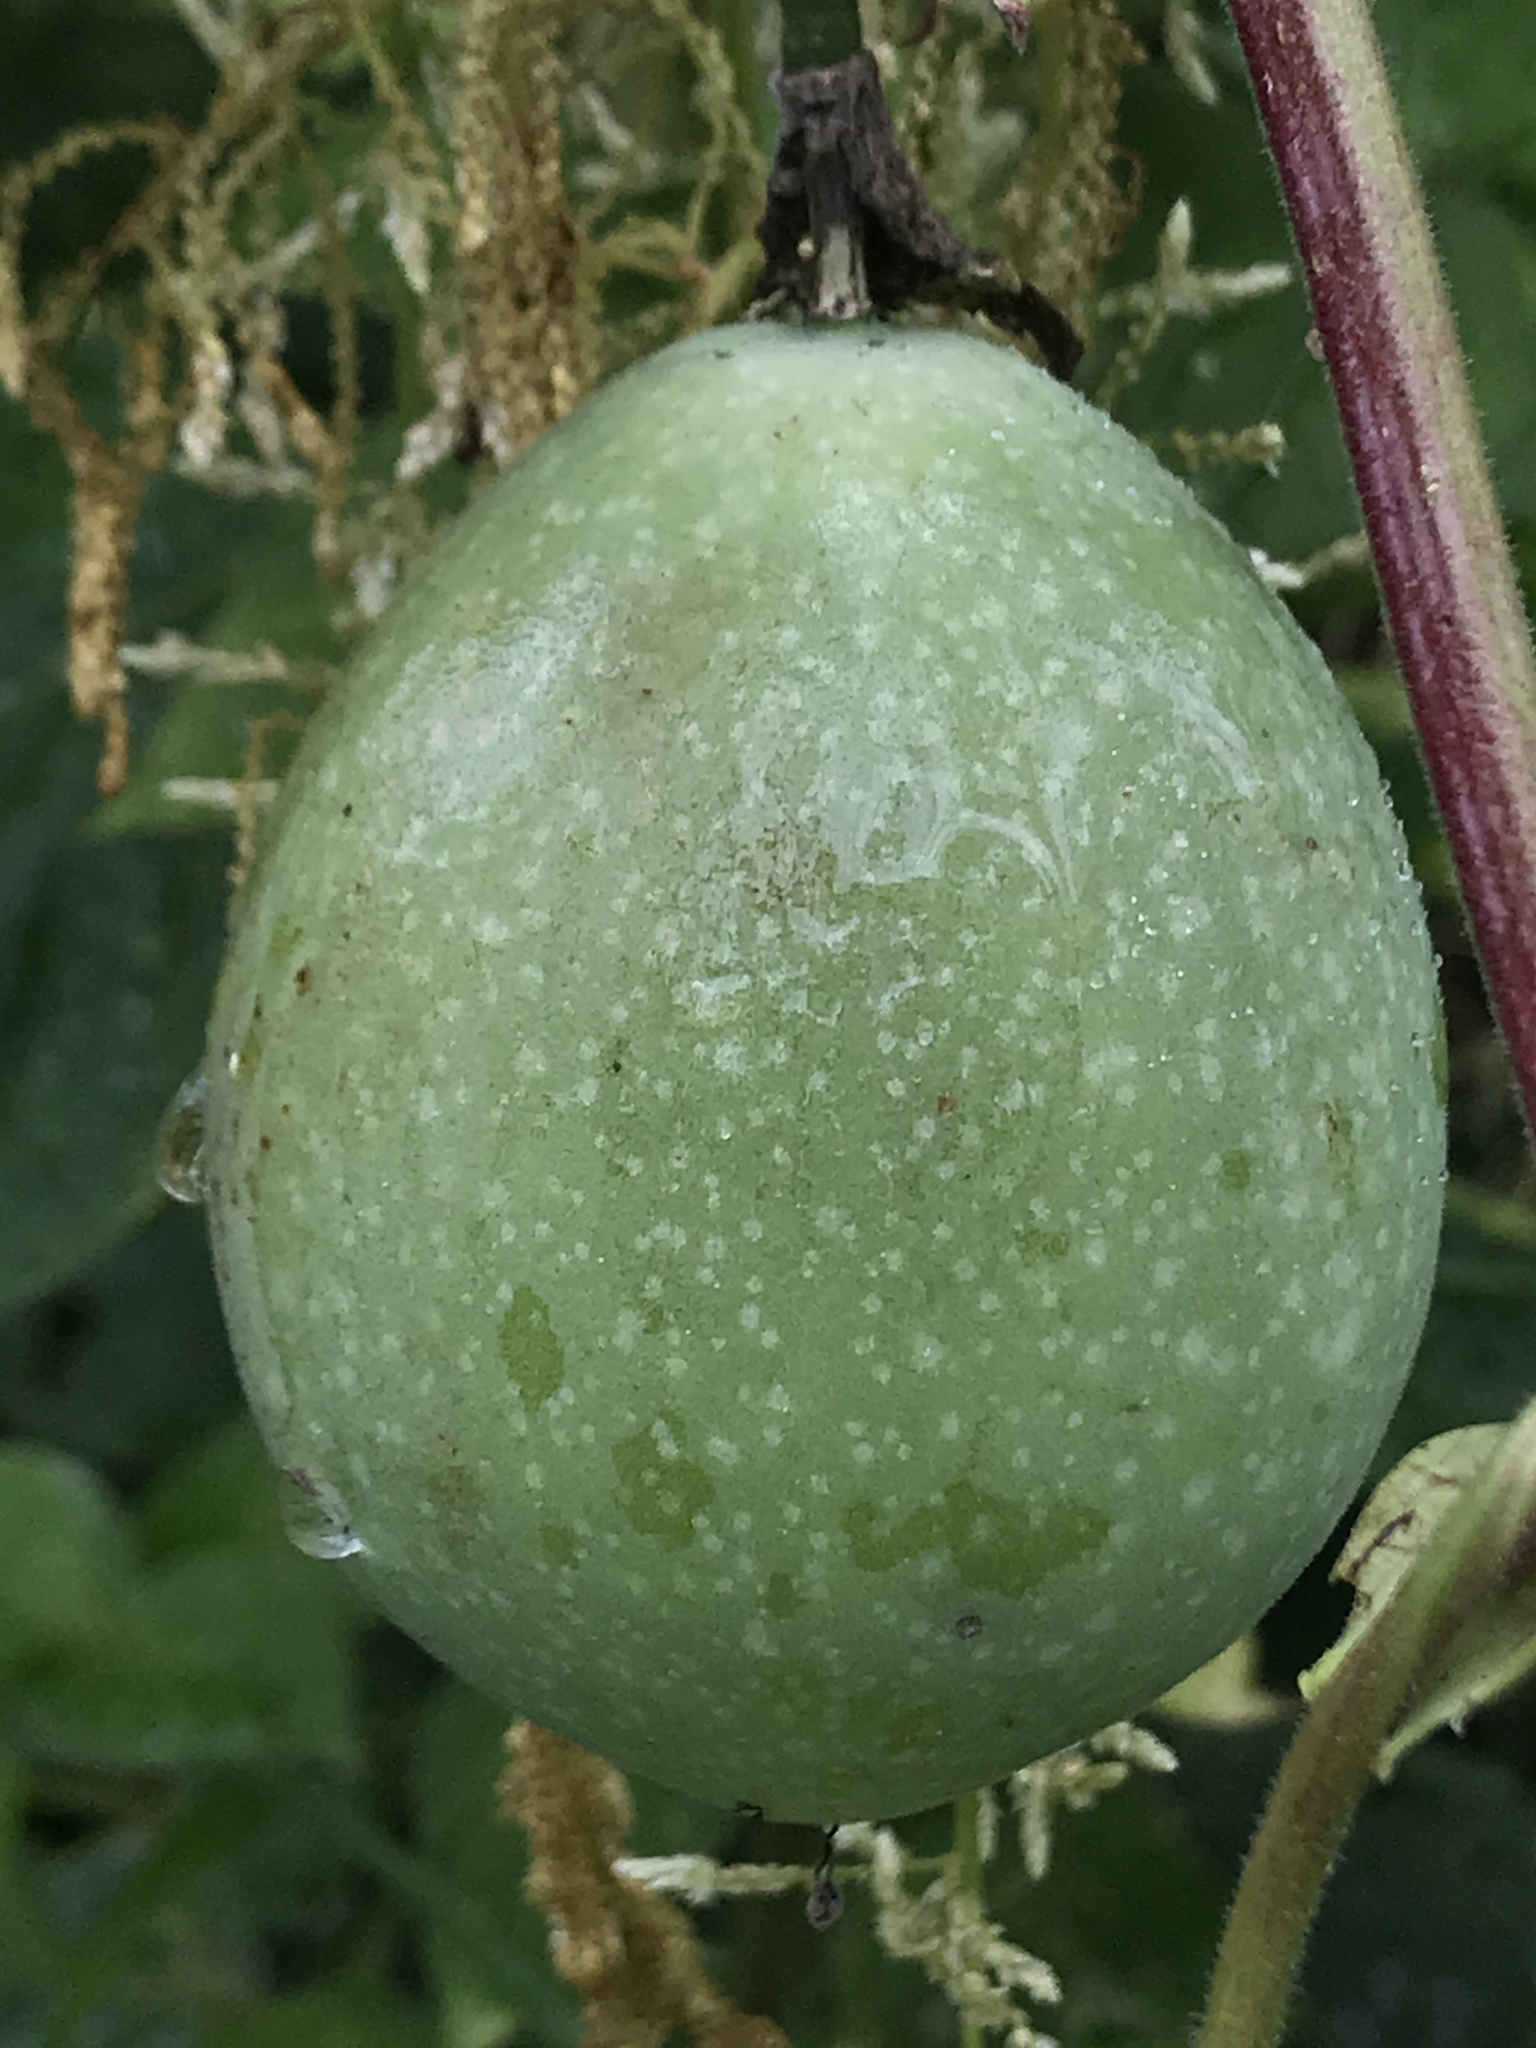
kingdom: Plantae
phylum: Tracheophyta
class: Magnoliopsida
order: Malpighiales
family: Passifloraceae
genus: Passiflora
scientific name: Passiflora adenopoda
